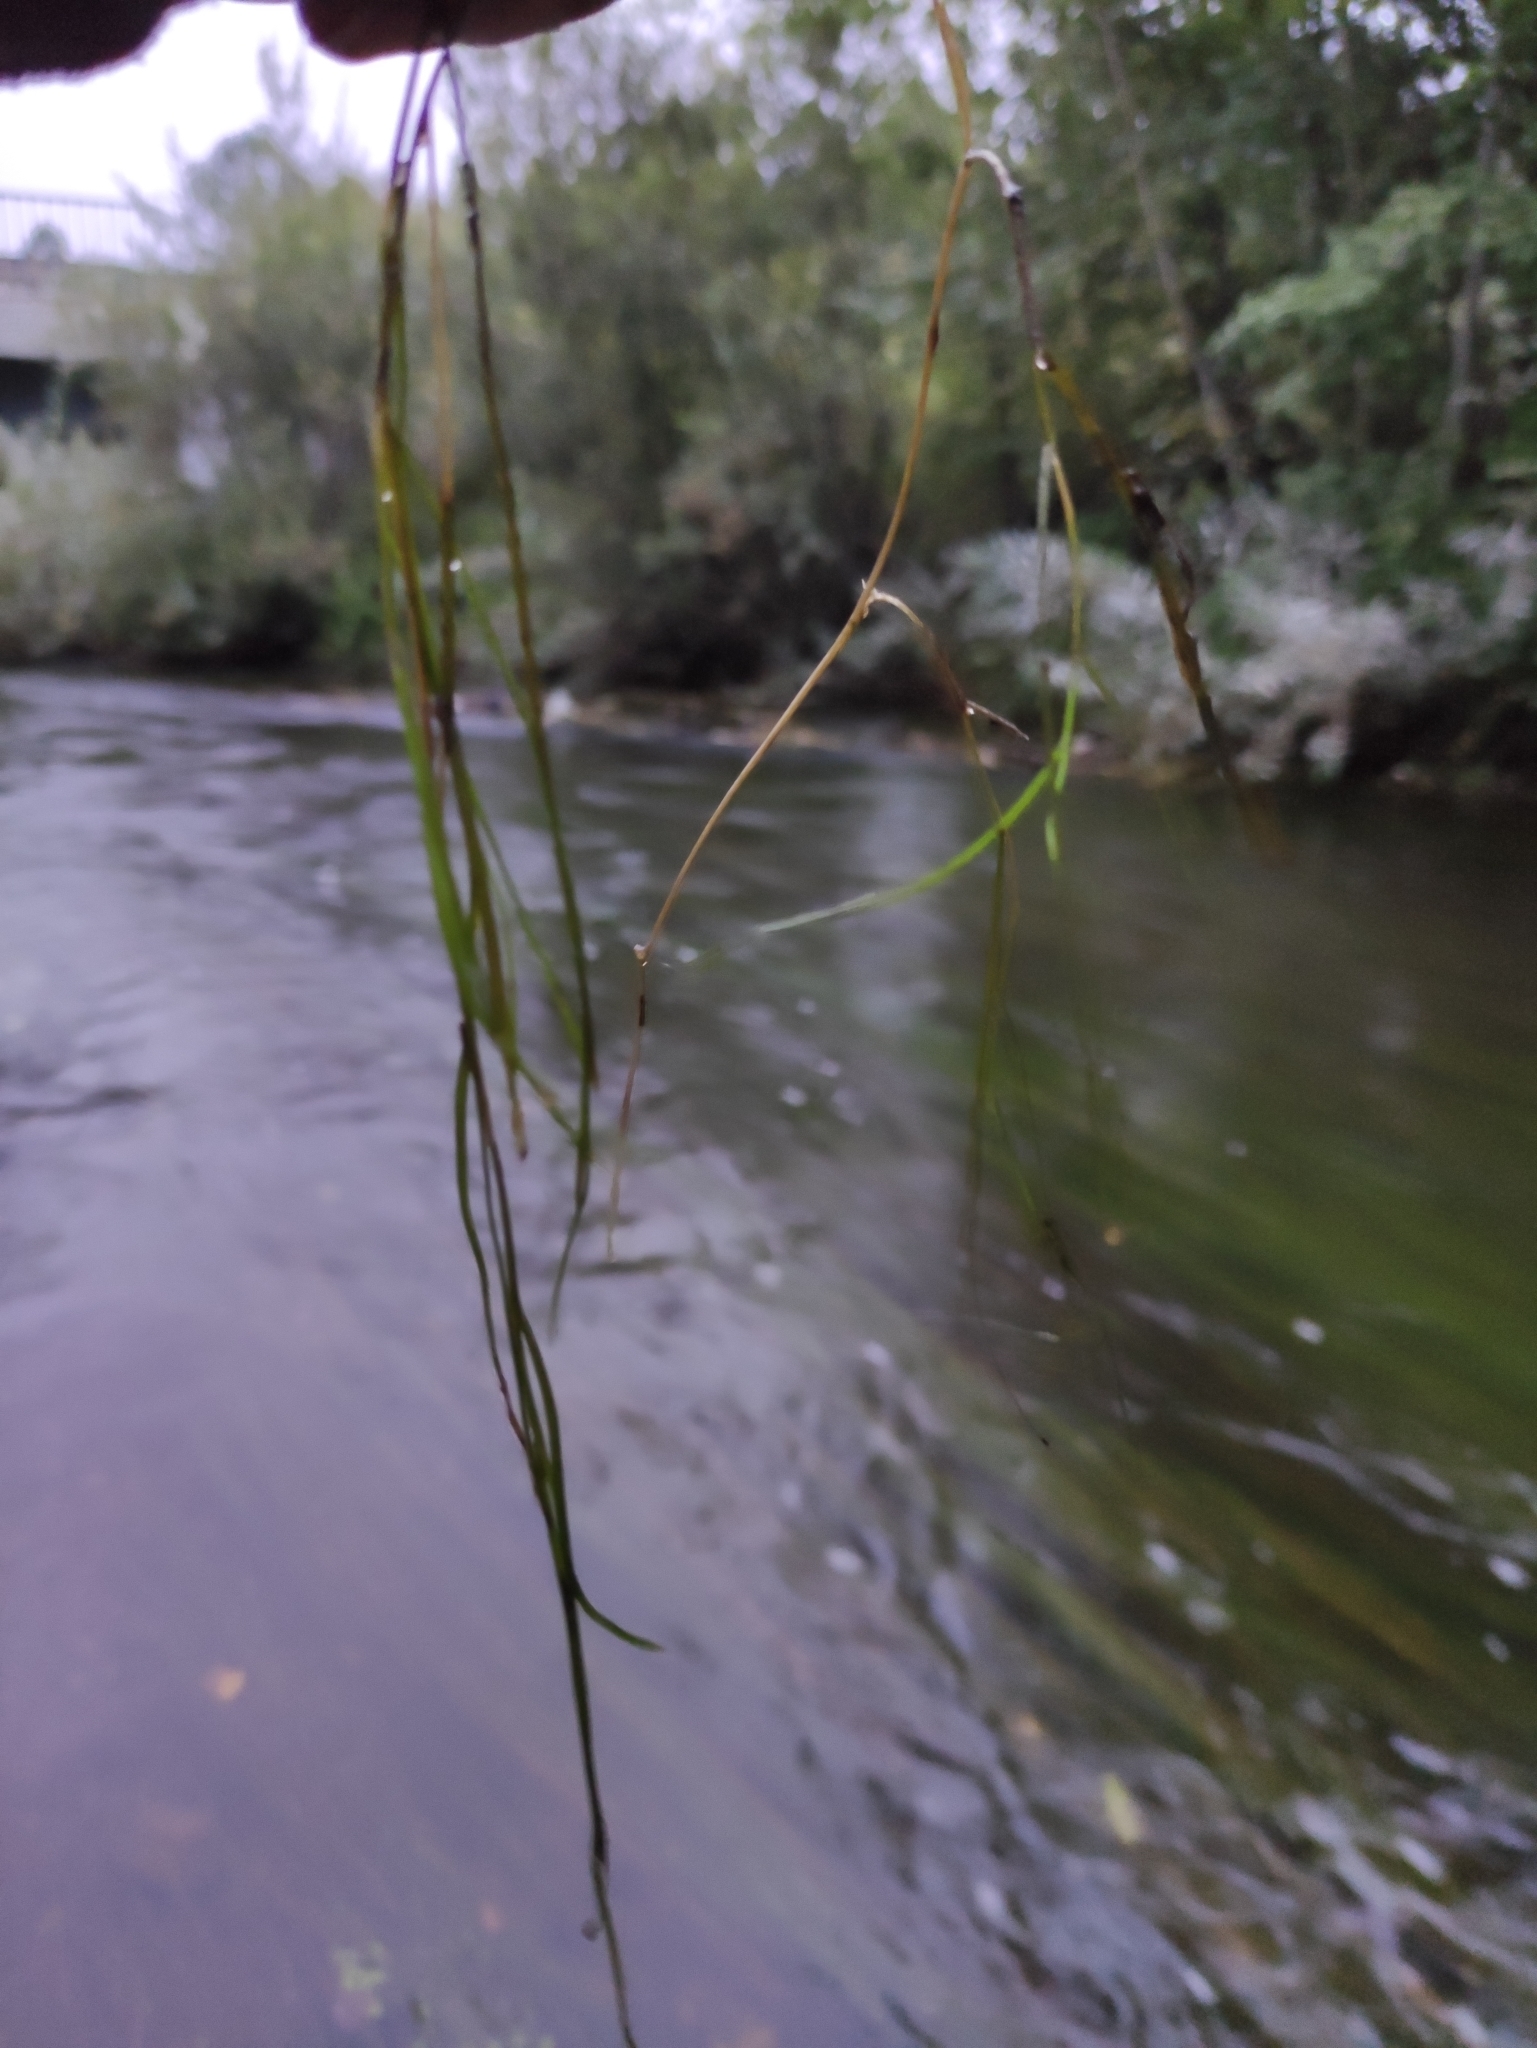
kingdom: Plantae
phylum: Tracheophyta
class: Liliopsida
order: Alismatales
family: Potamogetonaceae
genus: Stuckenia
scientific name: Stuckenia pectinata
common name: Sago pondweed
